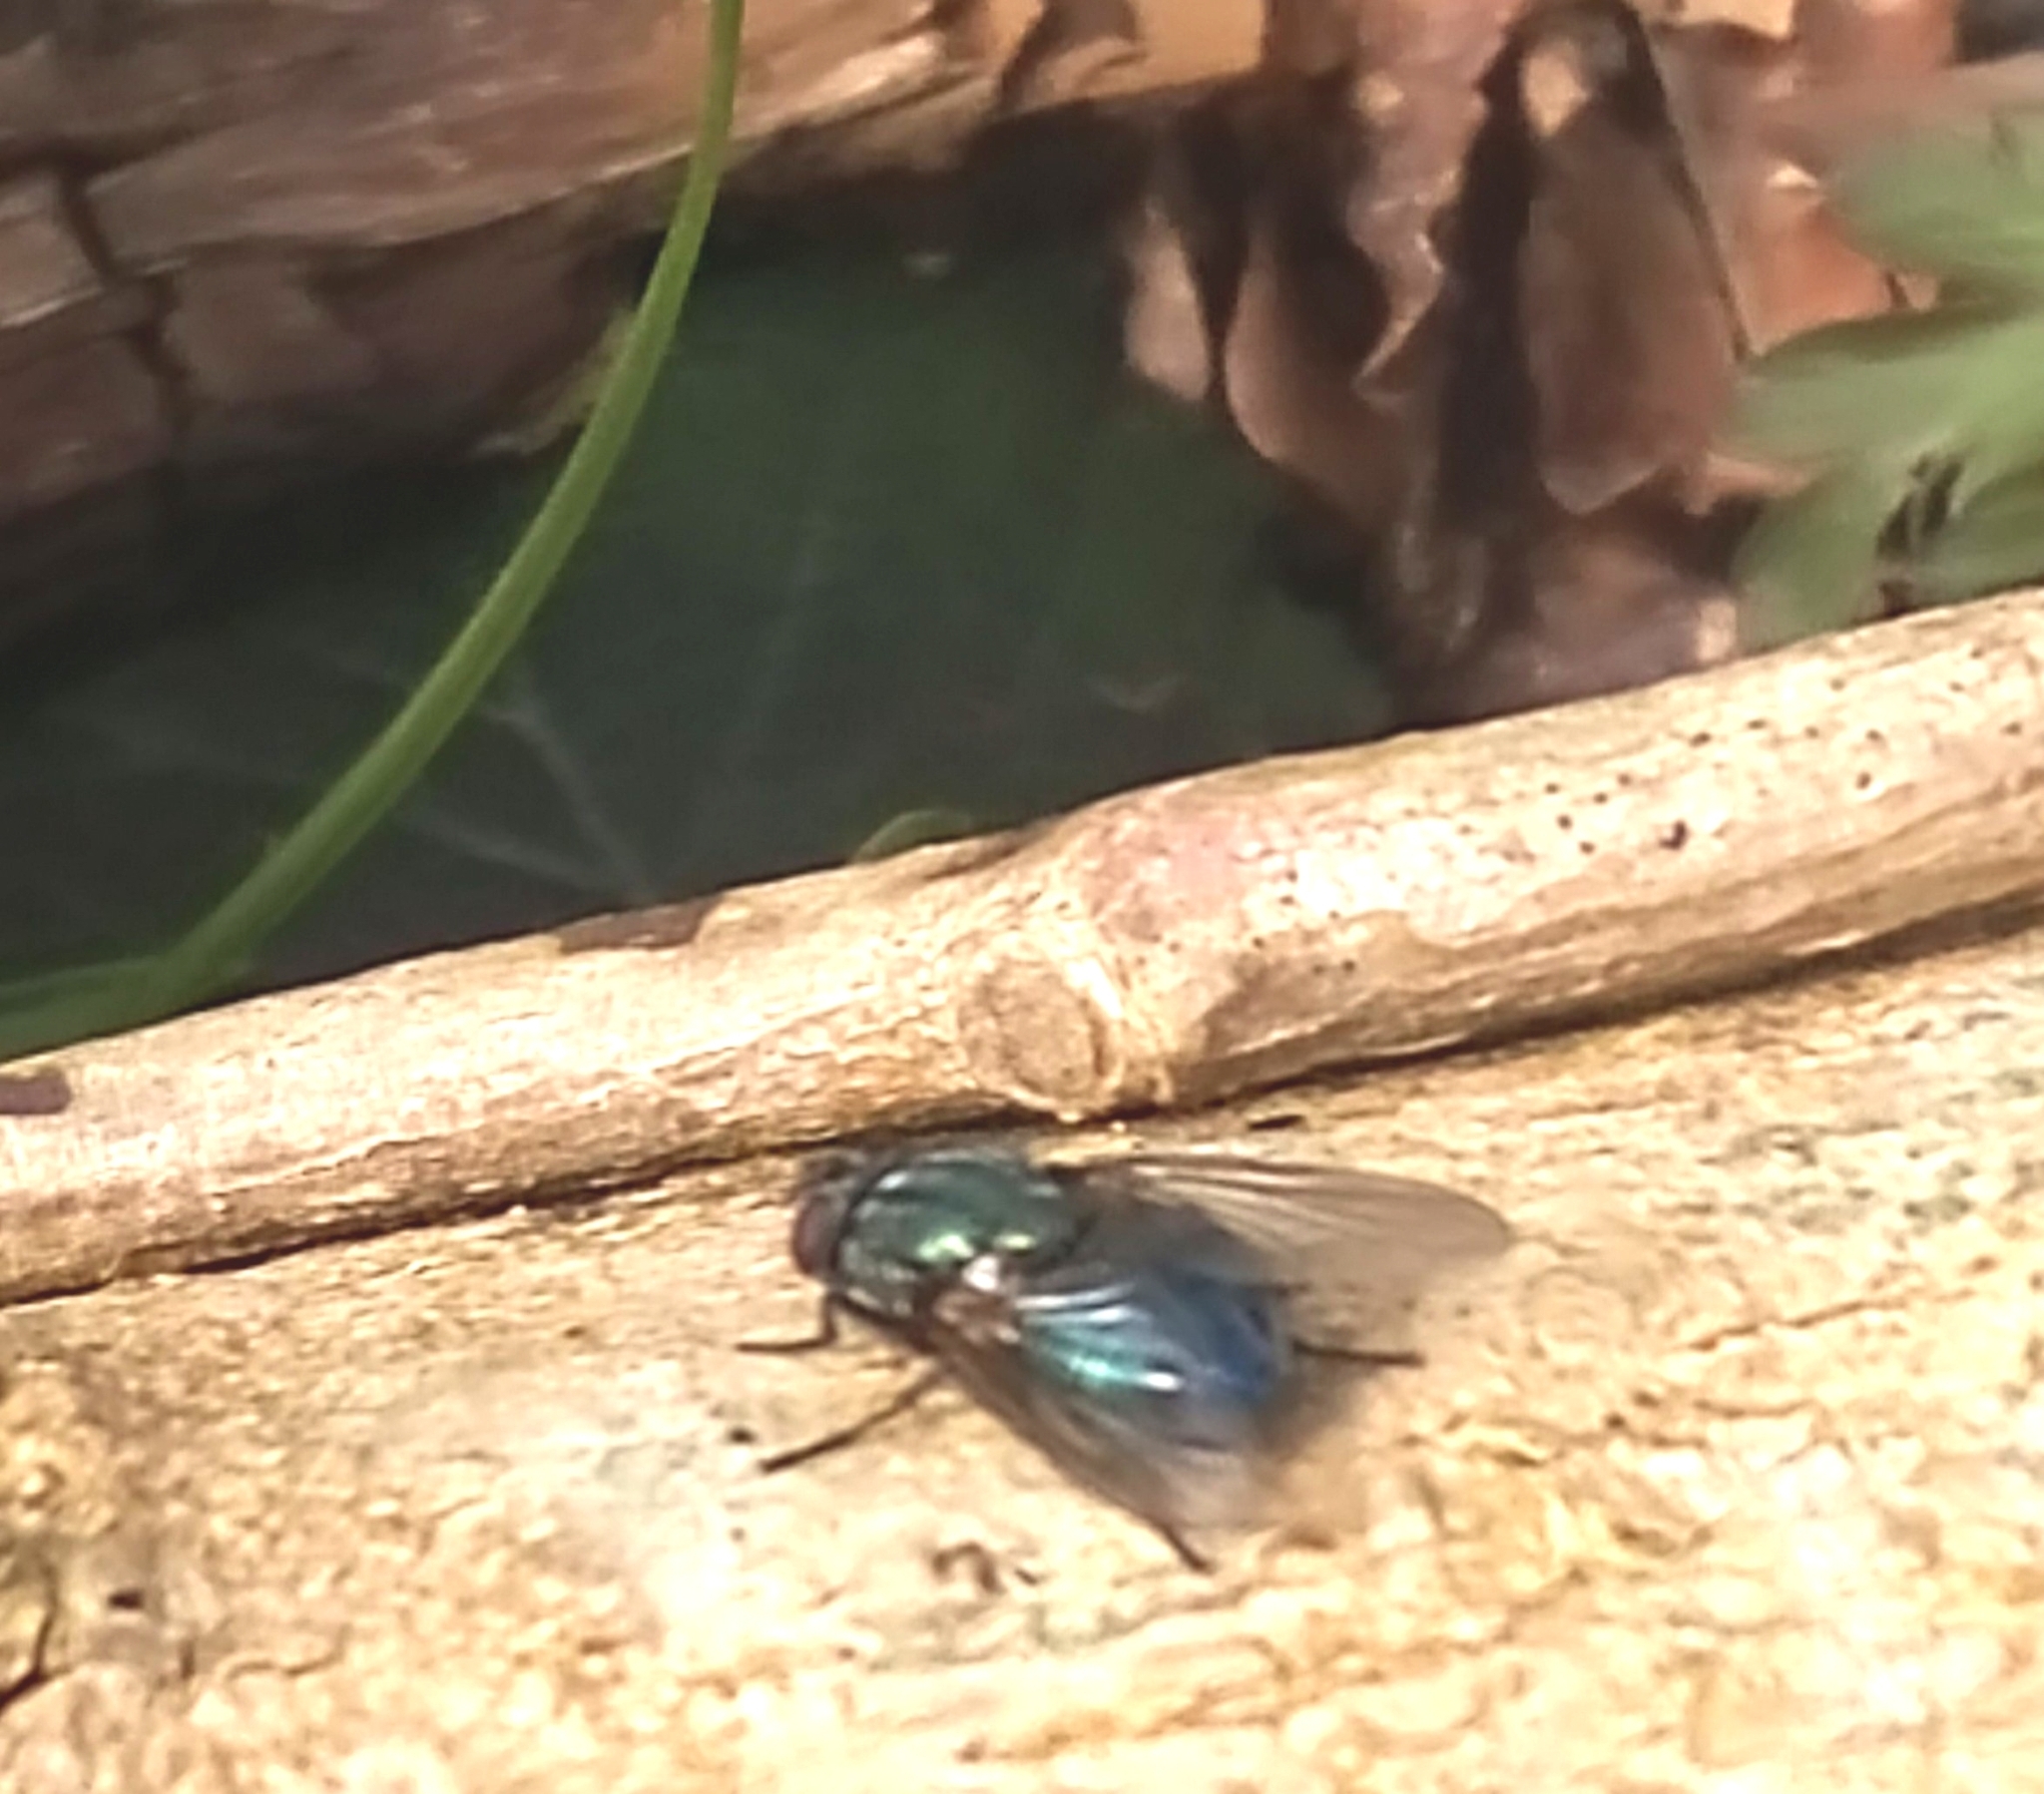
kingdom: Animalia
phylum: Arthropoda
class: Insecta
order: Diptera
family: Muscidae
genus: Dasyphora
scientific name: Dasyphora cyanella
